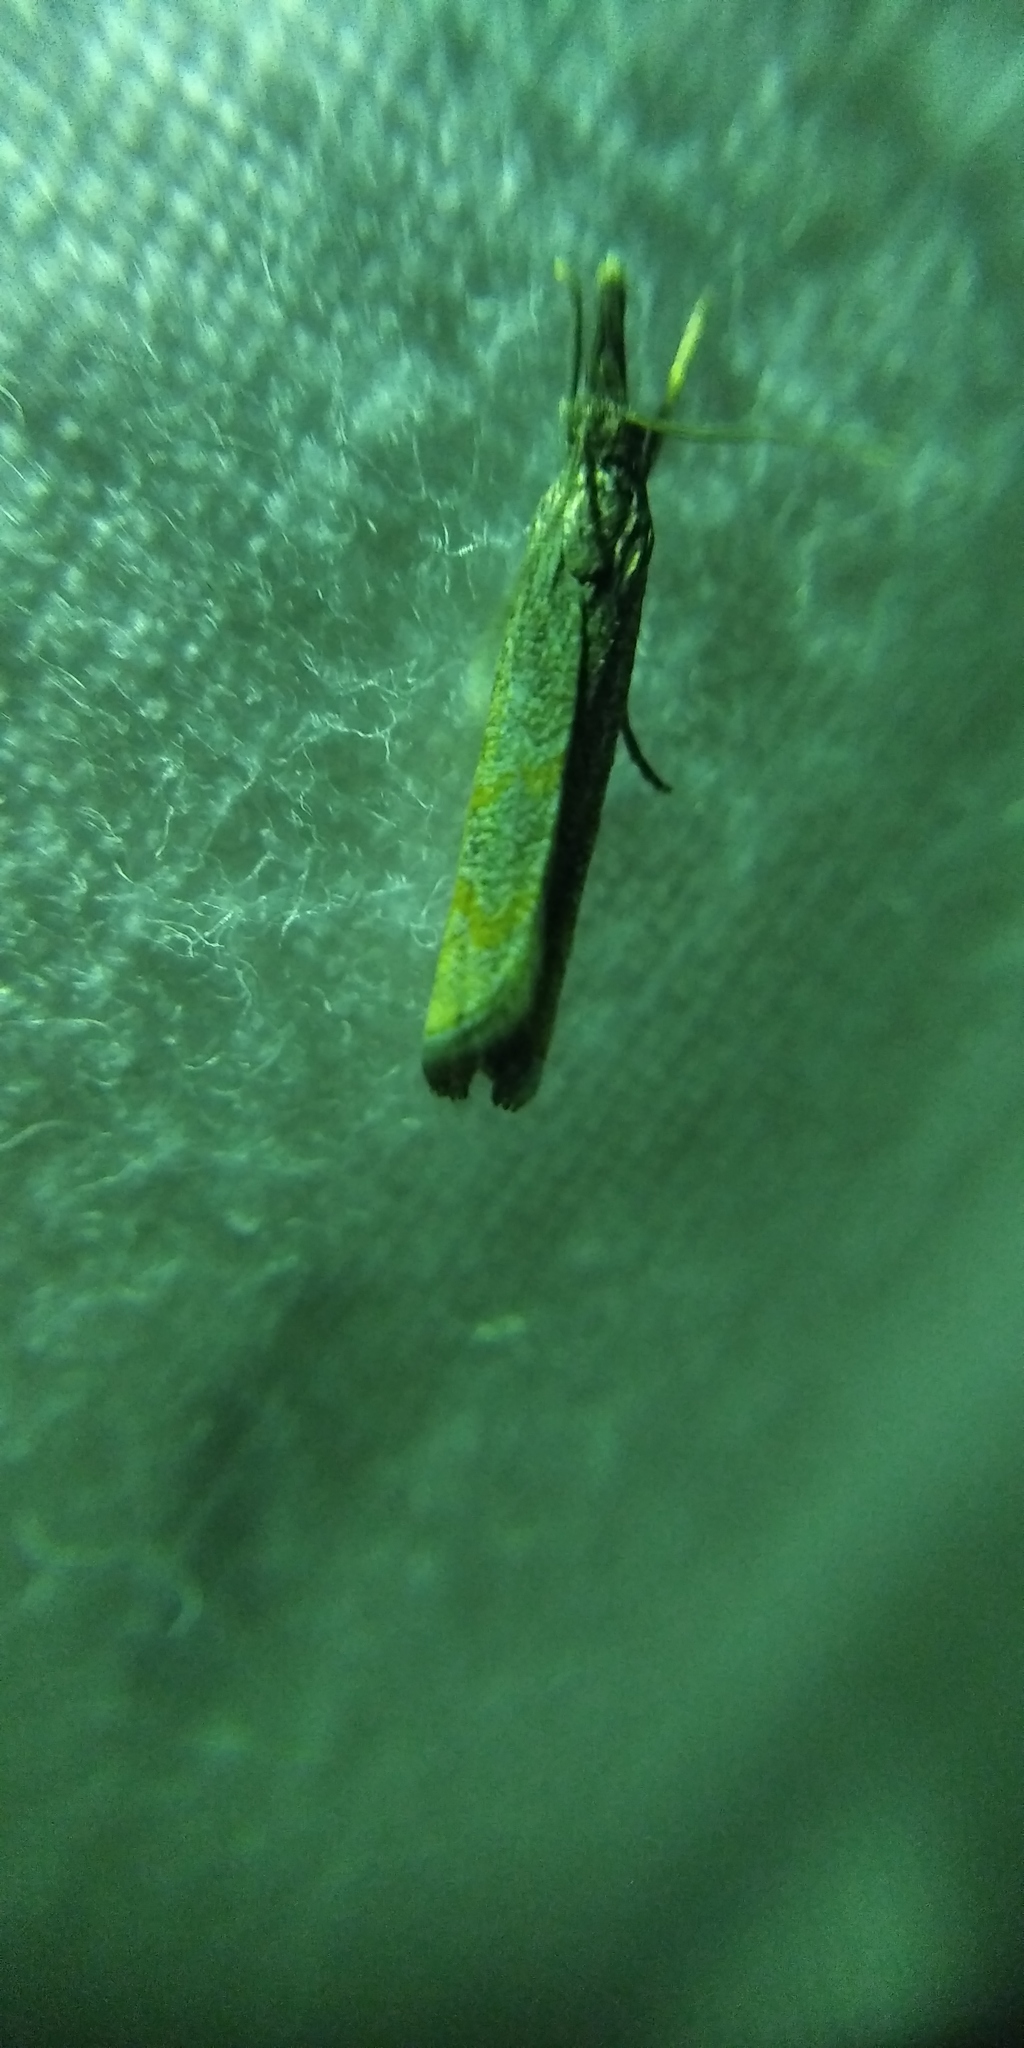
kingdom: Animalia
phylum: Arthropoda
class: Insecta
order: Lepidoptera
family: Crambidae
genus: Platytes
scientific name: Platytes cerusella
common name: Little grass-veneer
